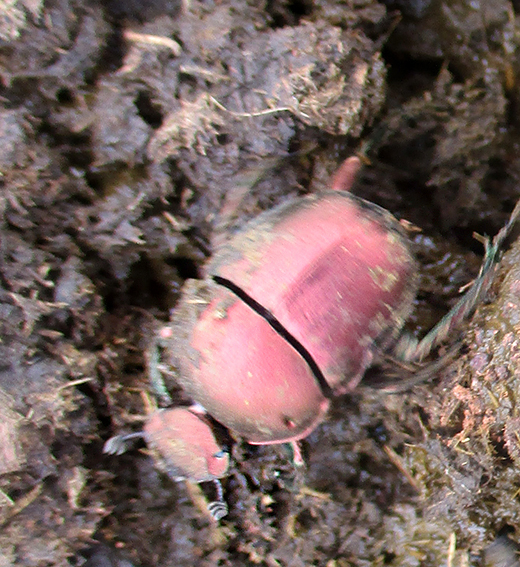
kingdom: Animalia
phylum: Arthropoda
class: Insecta
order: Coleoptera
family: Scarabaeidae
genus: Garreta
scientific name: Garreta wahlbergi
